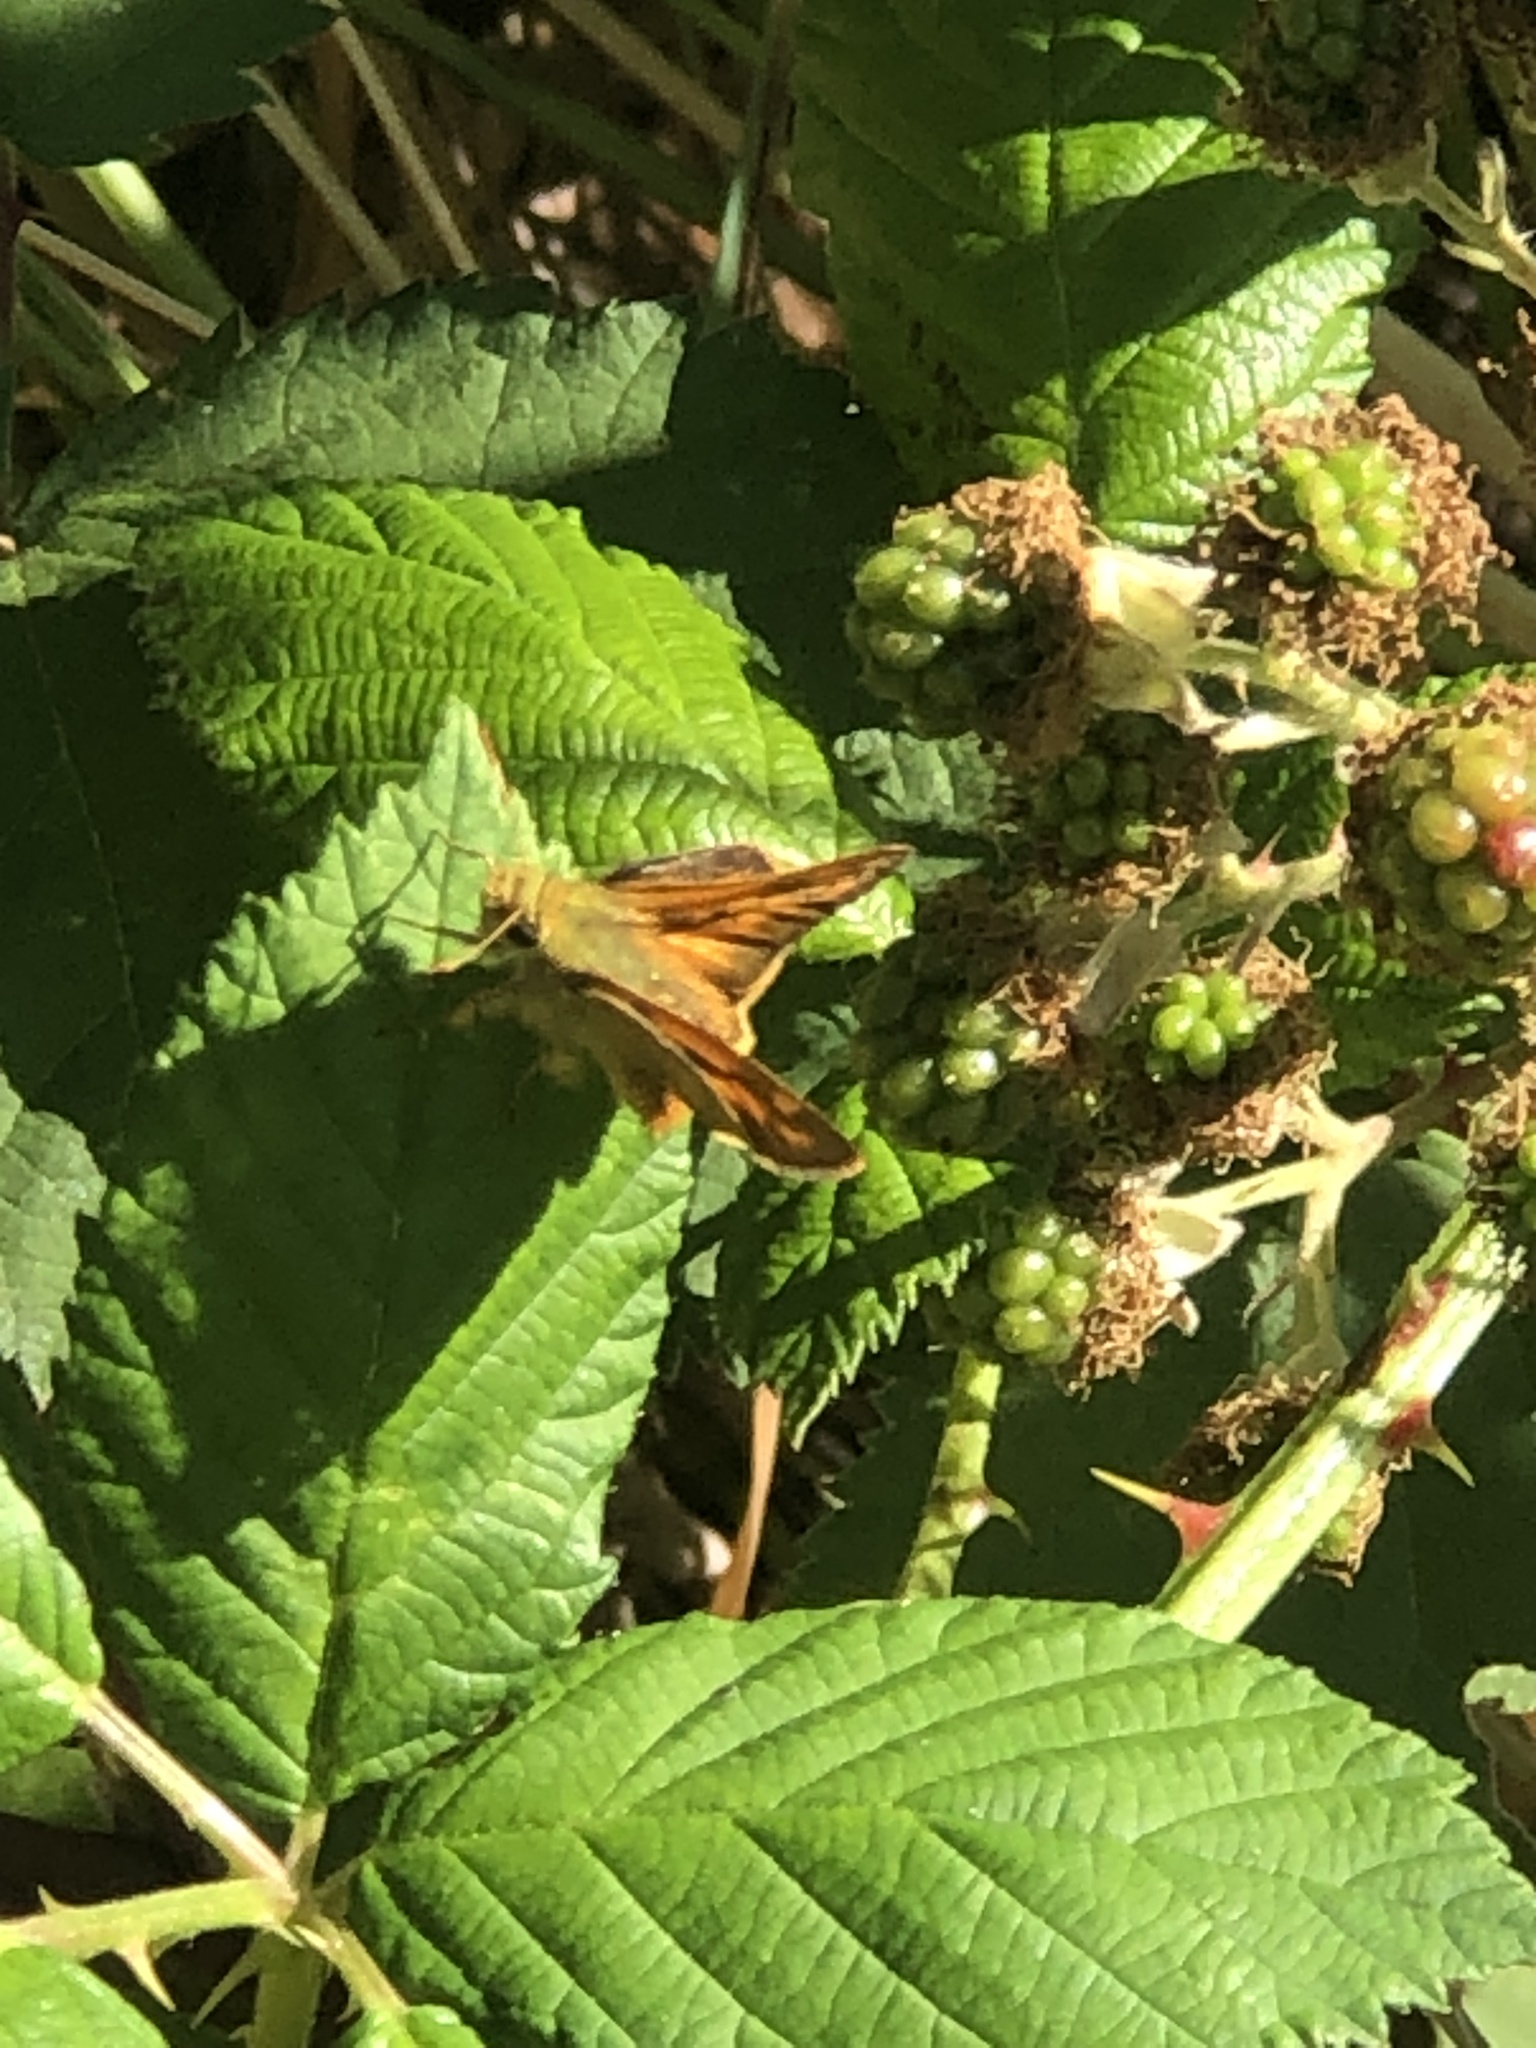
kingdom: Animalia
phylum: Arthropoda
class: Insecta
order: Lepidoptera
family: Hesperiidae
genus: Ochlodes
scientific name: Ochlodes sylvanoides
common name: Woodland skipper
